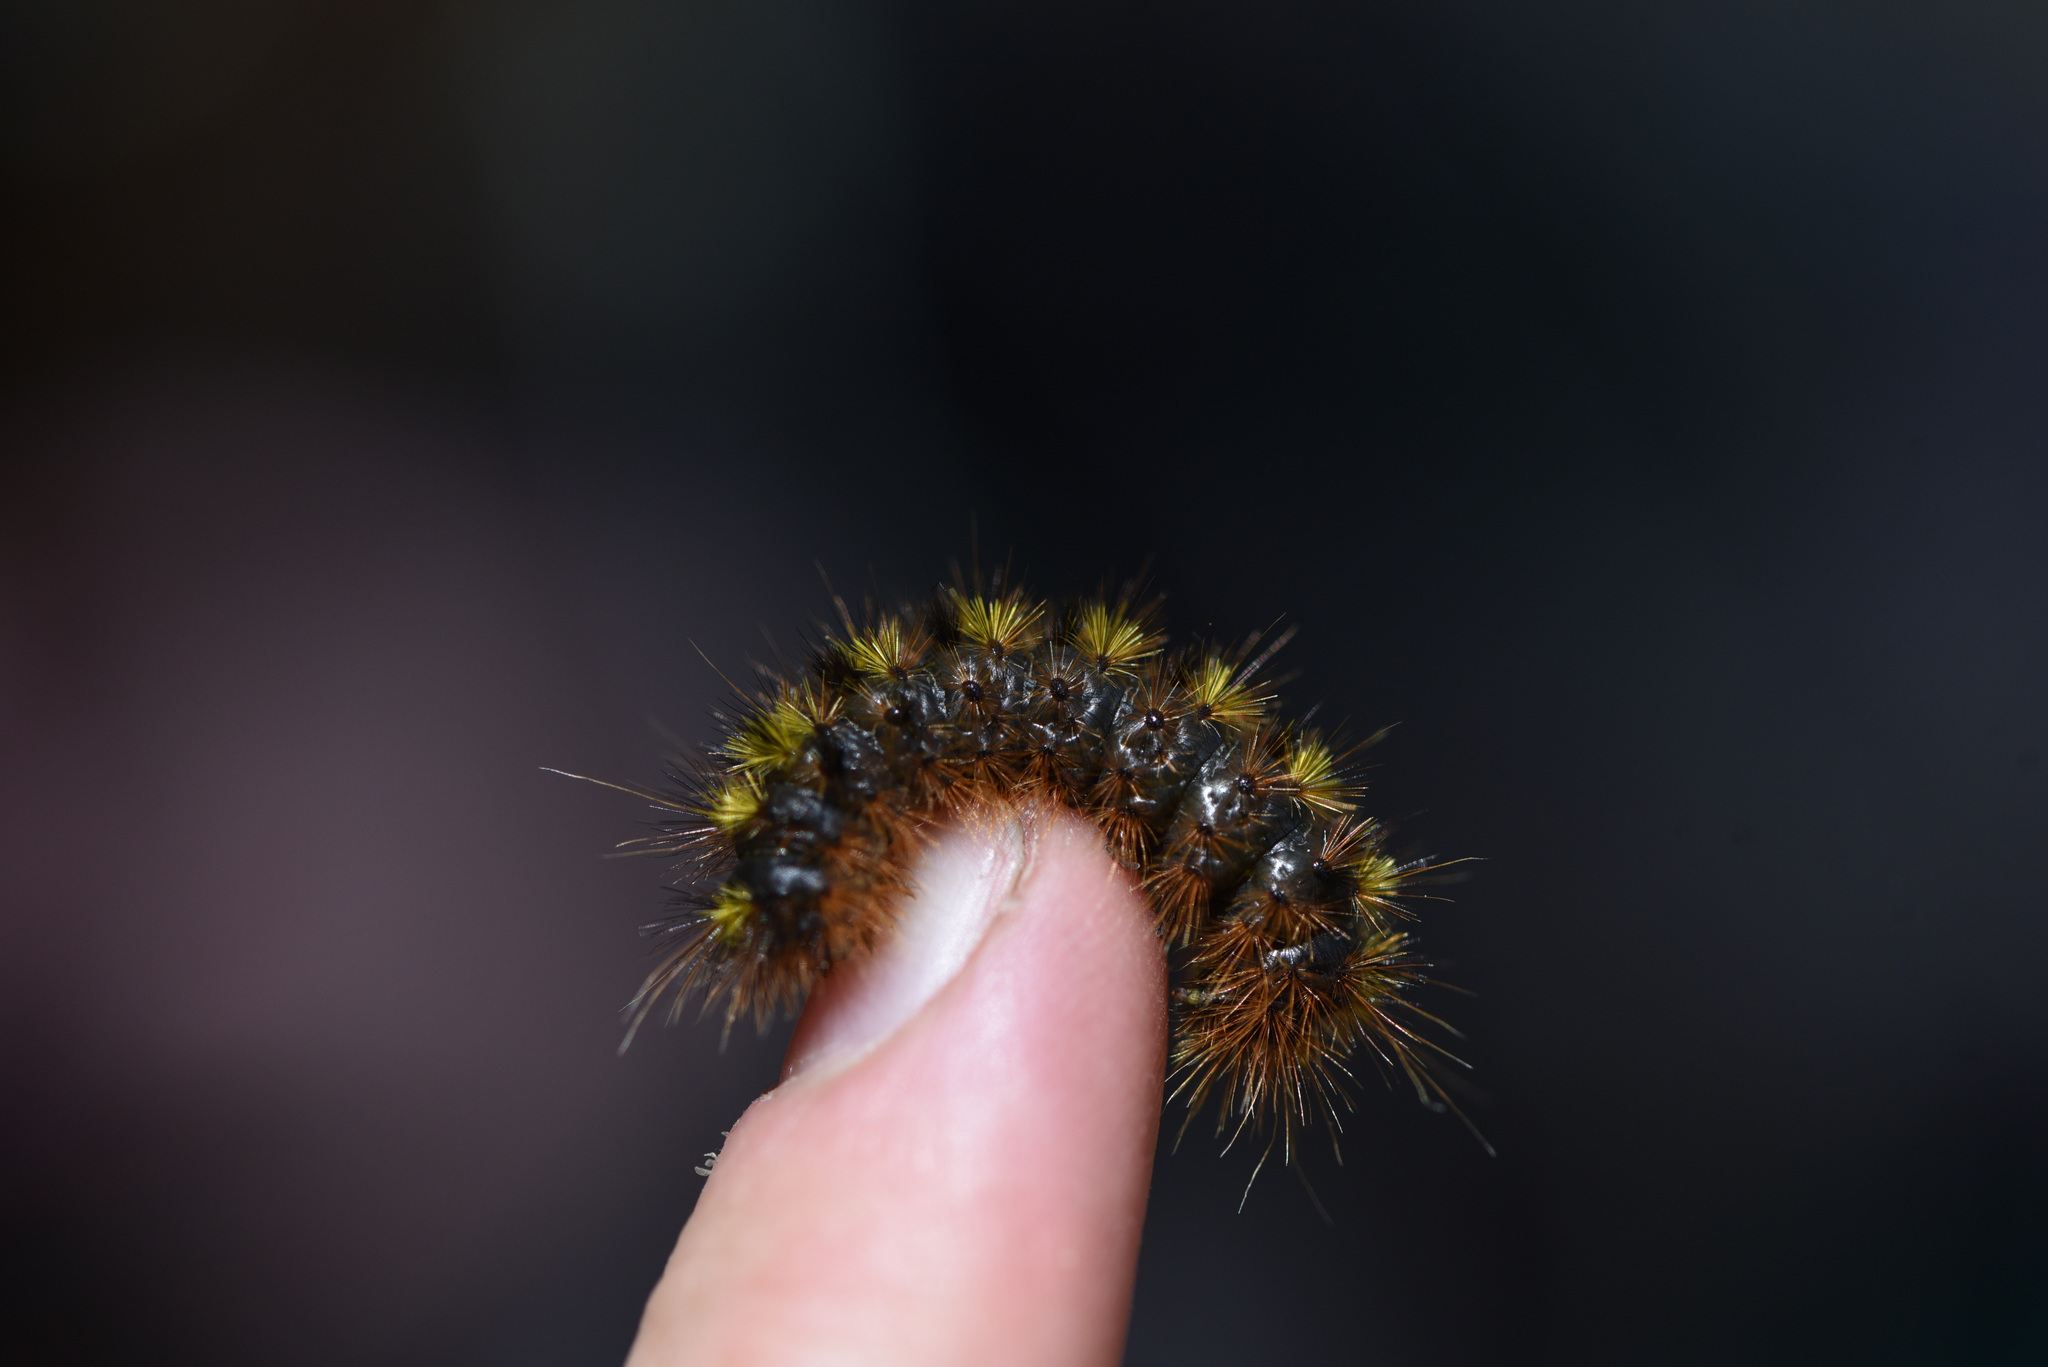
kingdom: Animalia
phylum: Arthropoda
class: Insecta
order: Lepidoptera
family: Erebidae
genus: Lophocampa
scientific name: Lophocampa argentata
